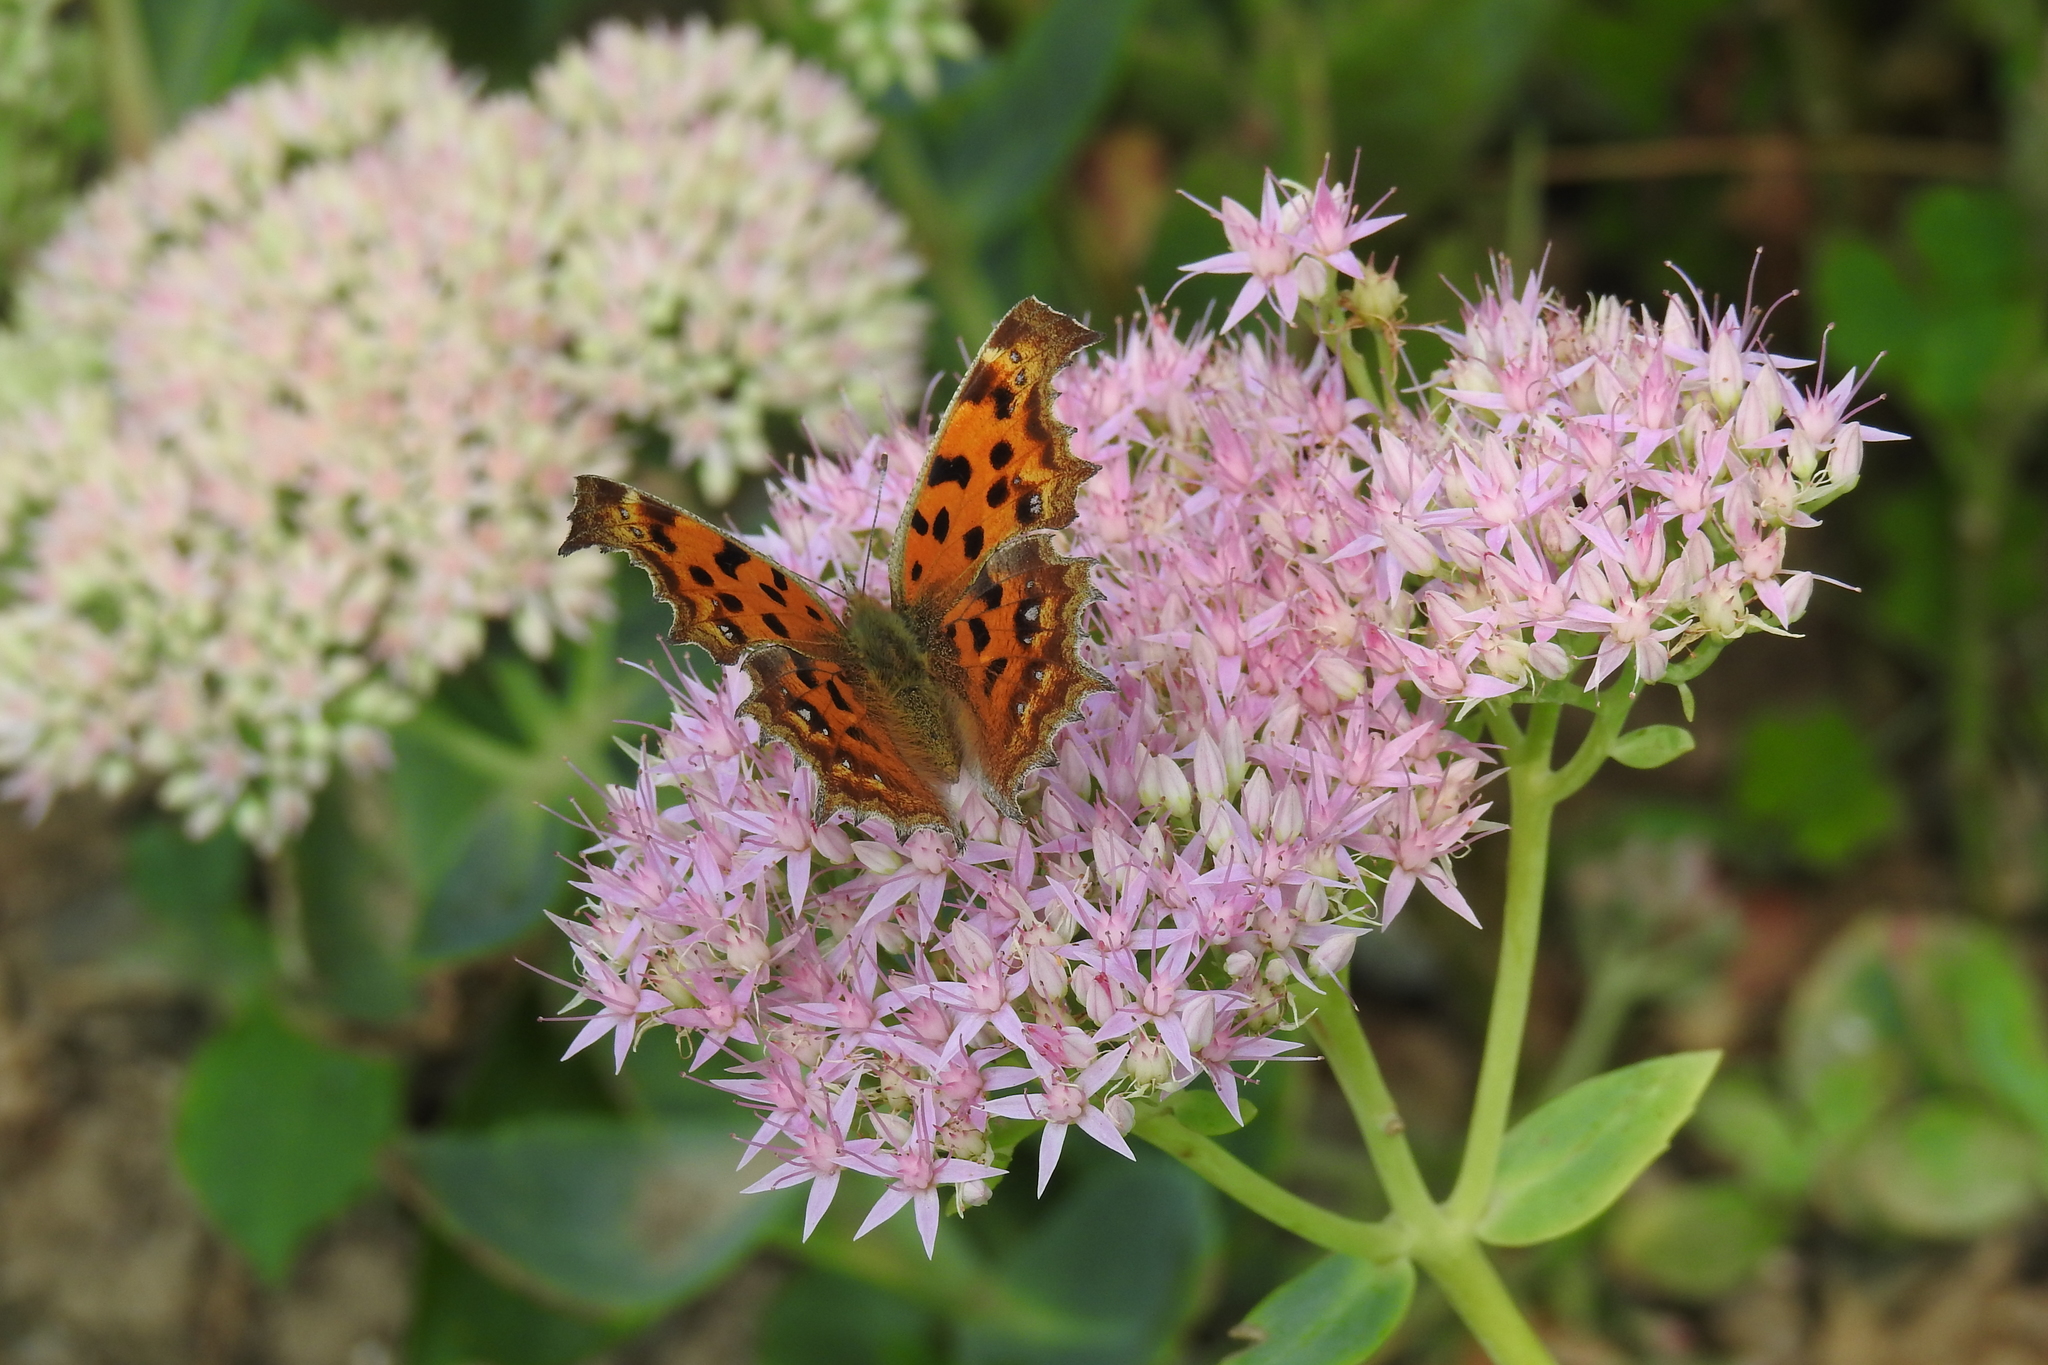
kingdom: Animalia
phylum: Arthropoda
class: Insecta
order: Lepidoptera
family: Nymphalidae
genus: Polygonia
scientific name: Polygonia c-aureum
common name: Asian comma
